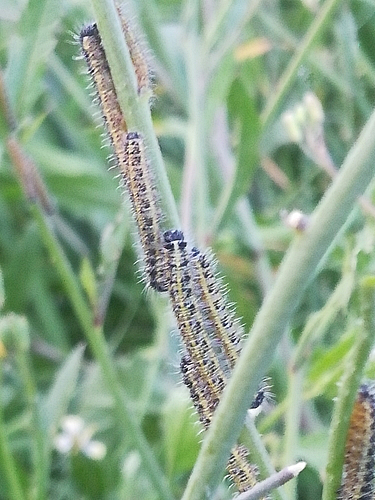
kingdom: Animalia
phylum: Arthropoda
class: Insecta
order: Lepidoptera
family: Pieridae
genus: Pieris
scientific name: Pieris brassicae
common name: Large white
